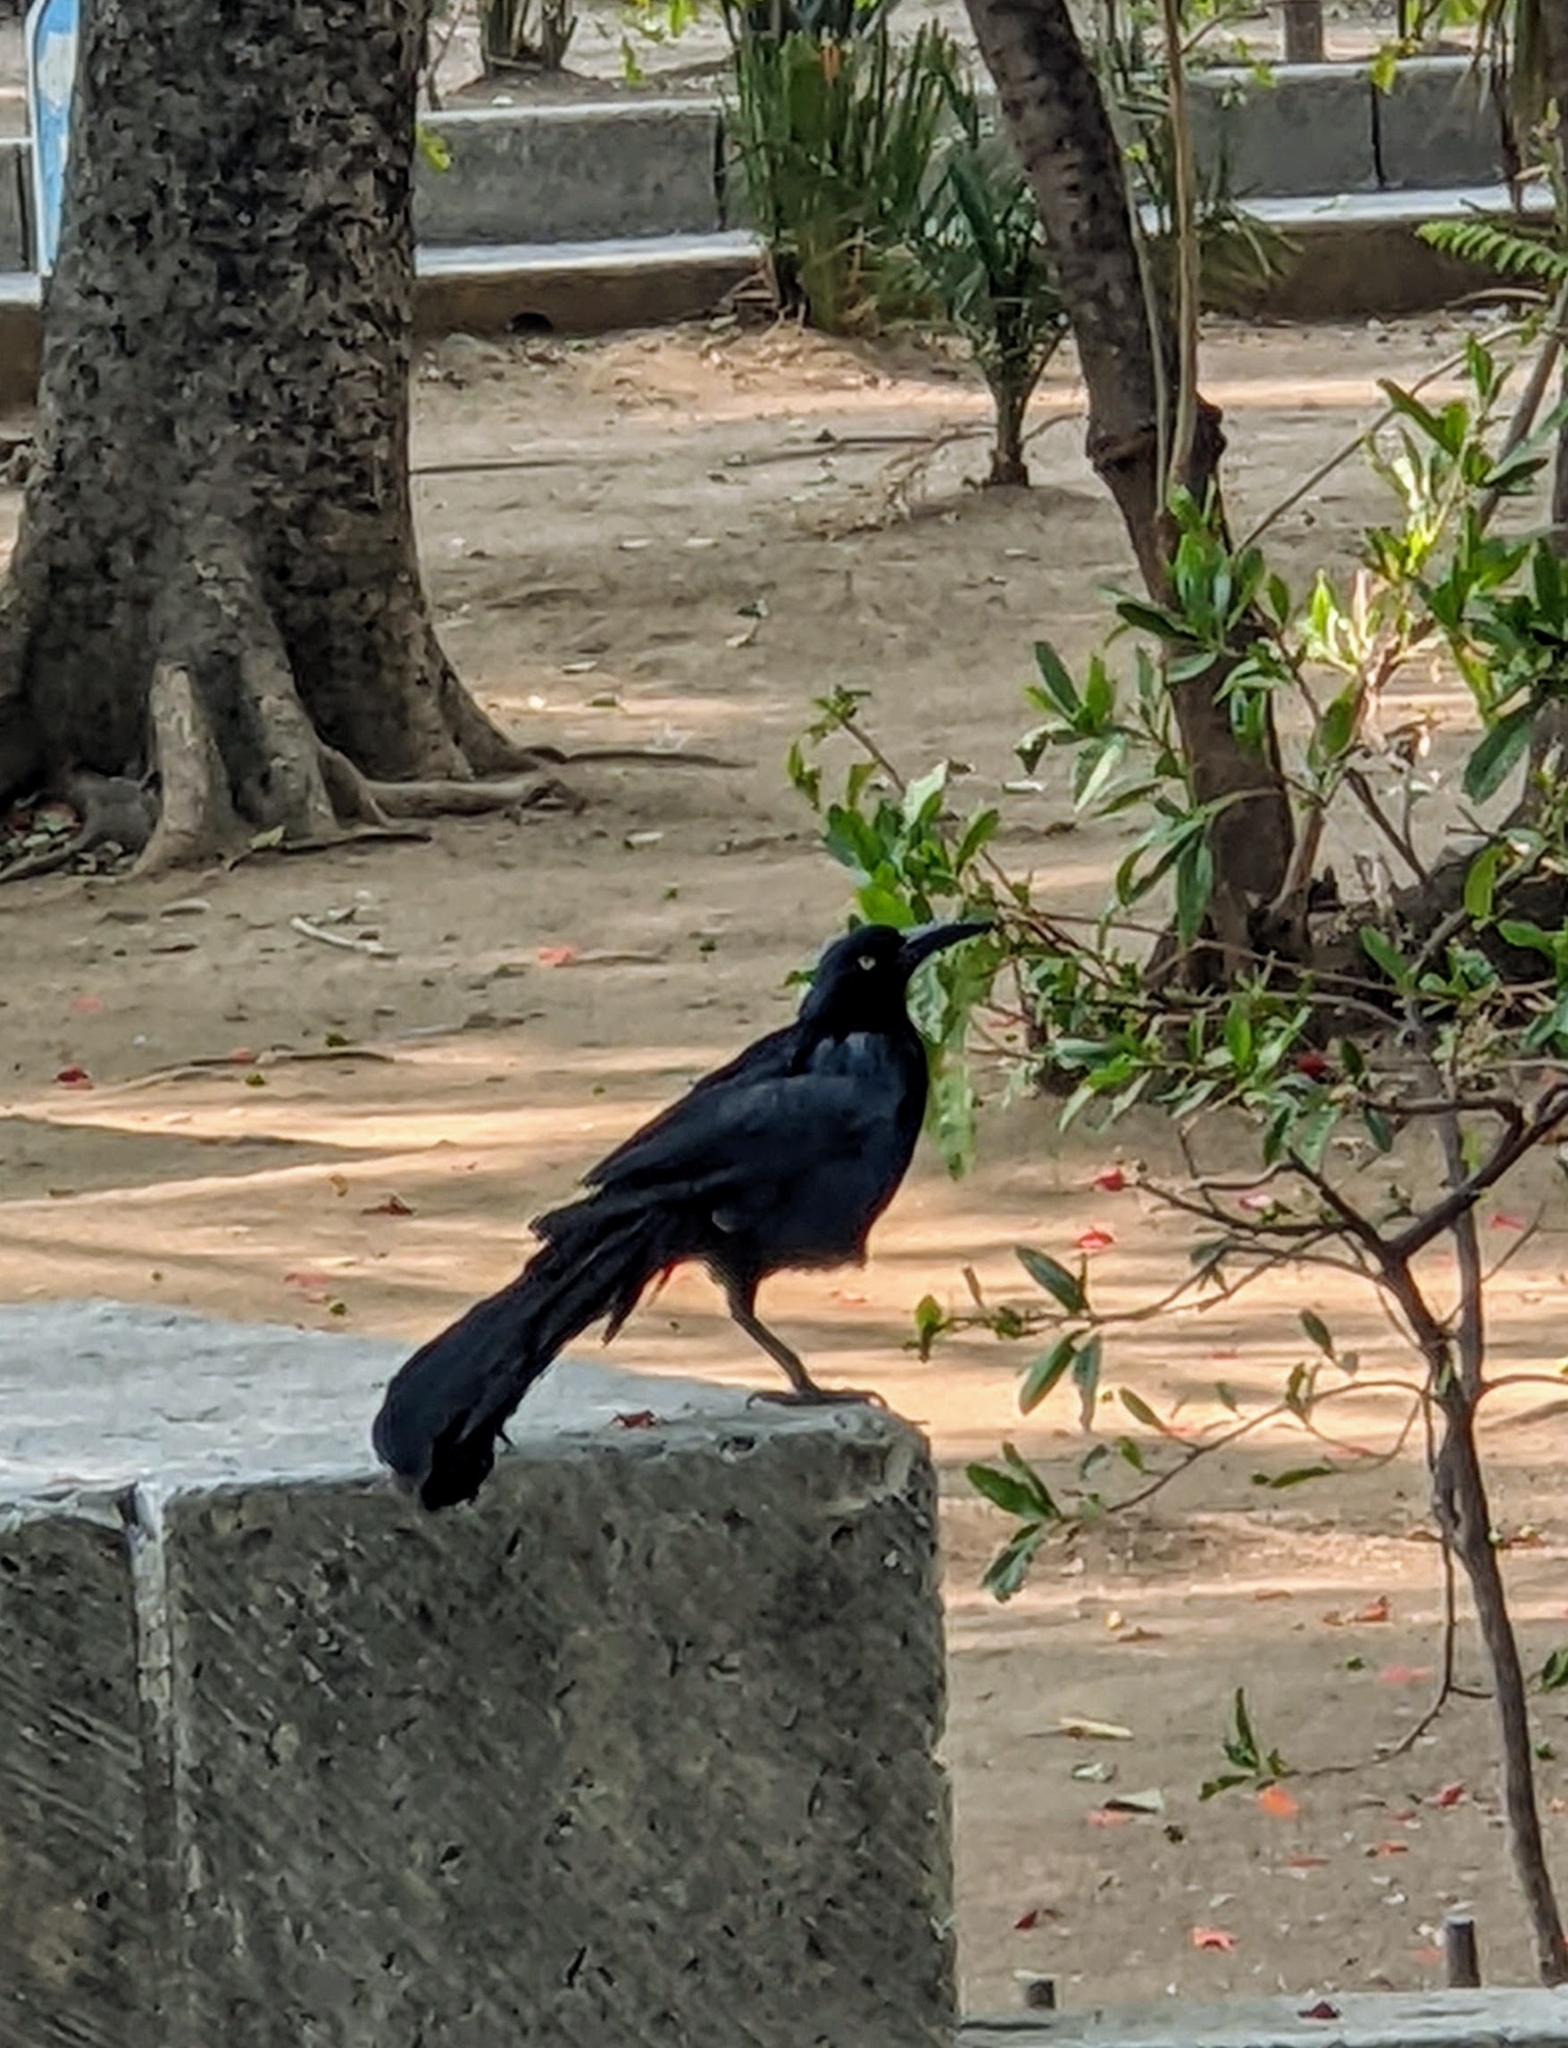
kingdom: Animalia
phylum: Chordata
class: Aves
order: Passeriformes
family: Icteridae
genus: Quiscalus
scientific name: Quiscalus mexicanus
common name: Great-tailed grackle
